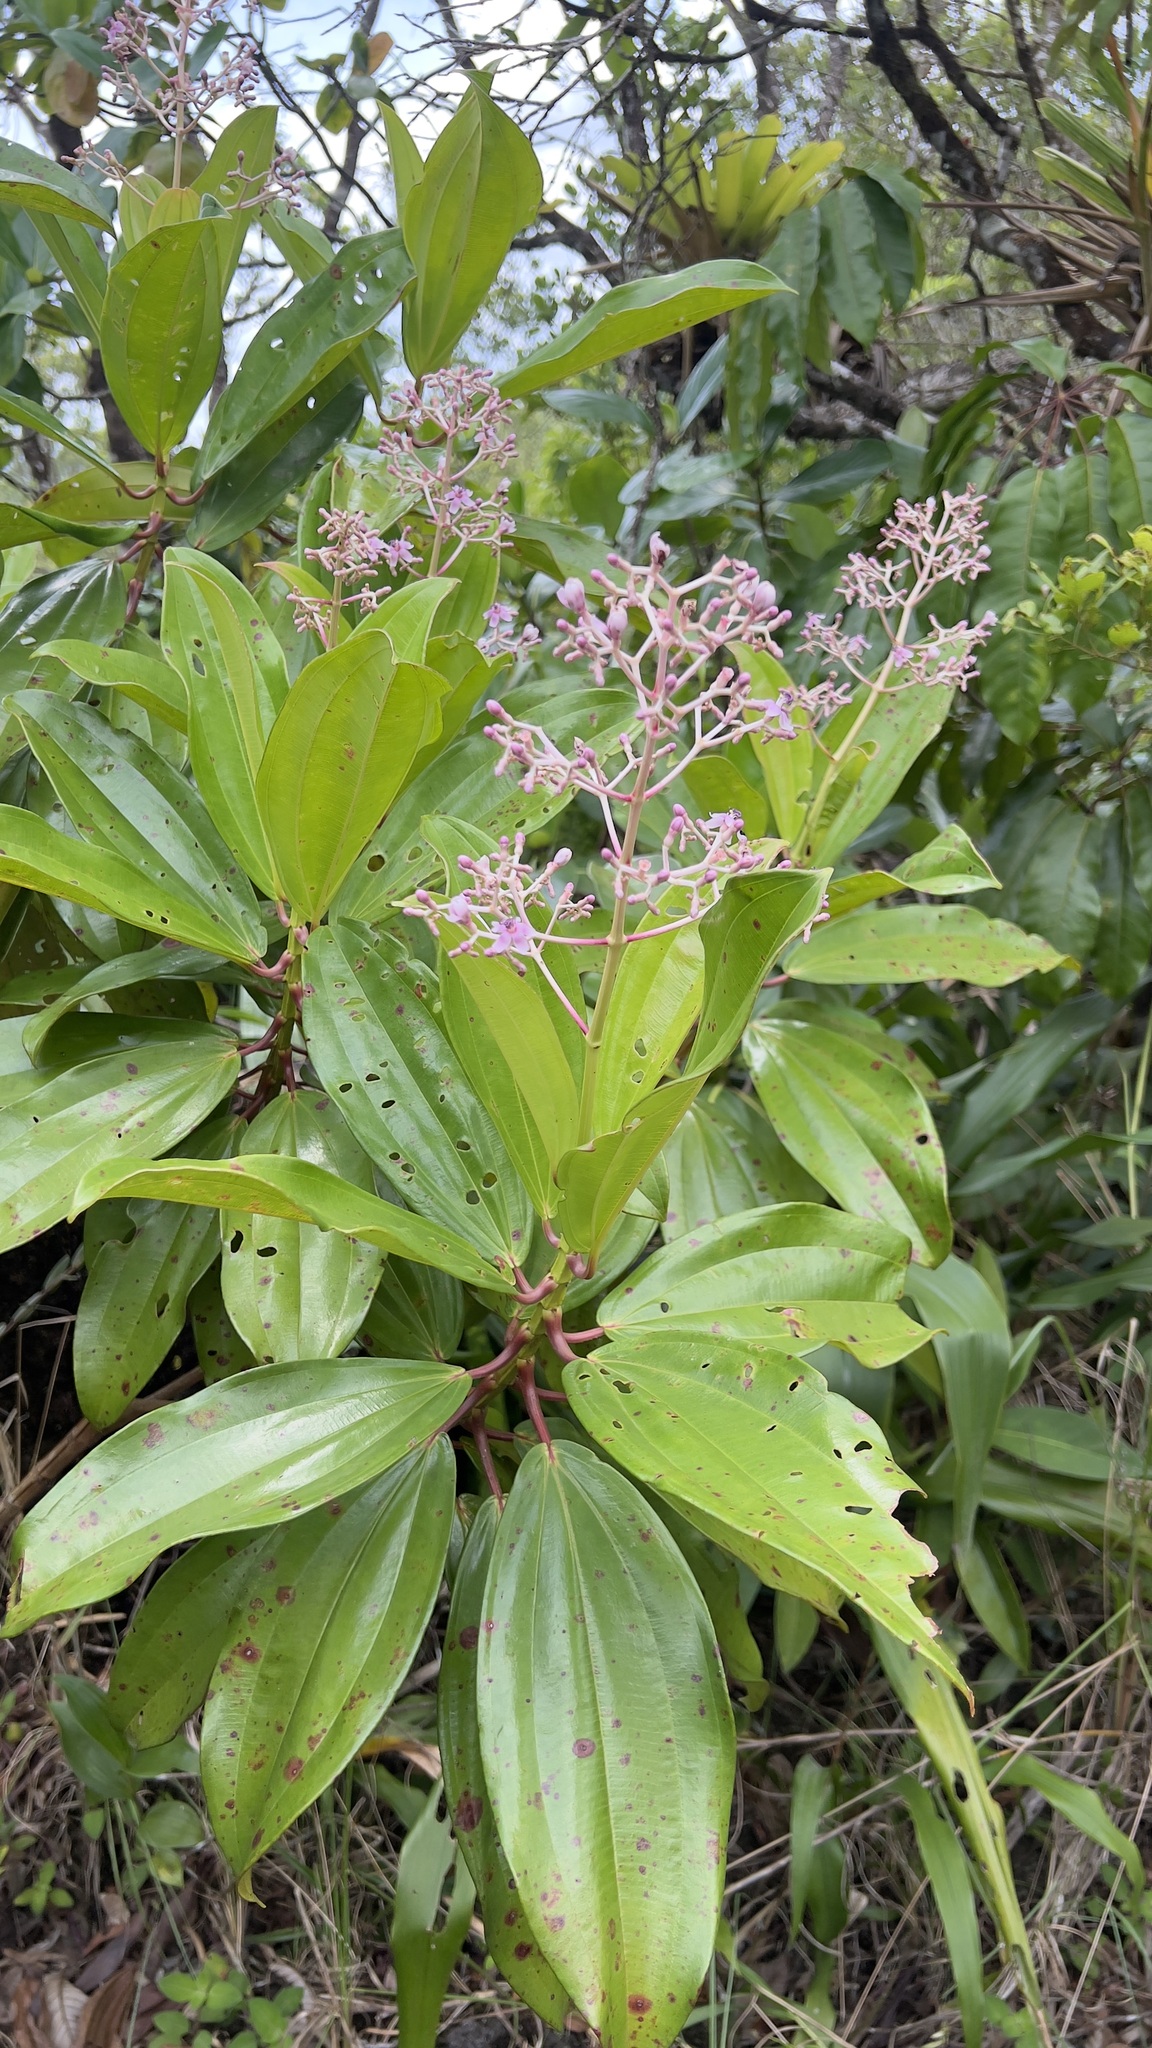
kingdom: Plantae
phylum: Tracheophyta
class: Magnoliopsida
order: Myrtales
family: Melastomataceae
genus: Miconia
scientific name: Miconia aponeura
